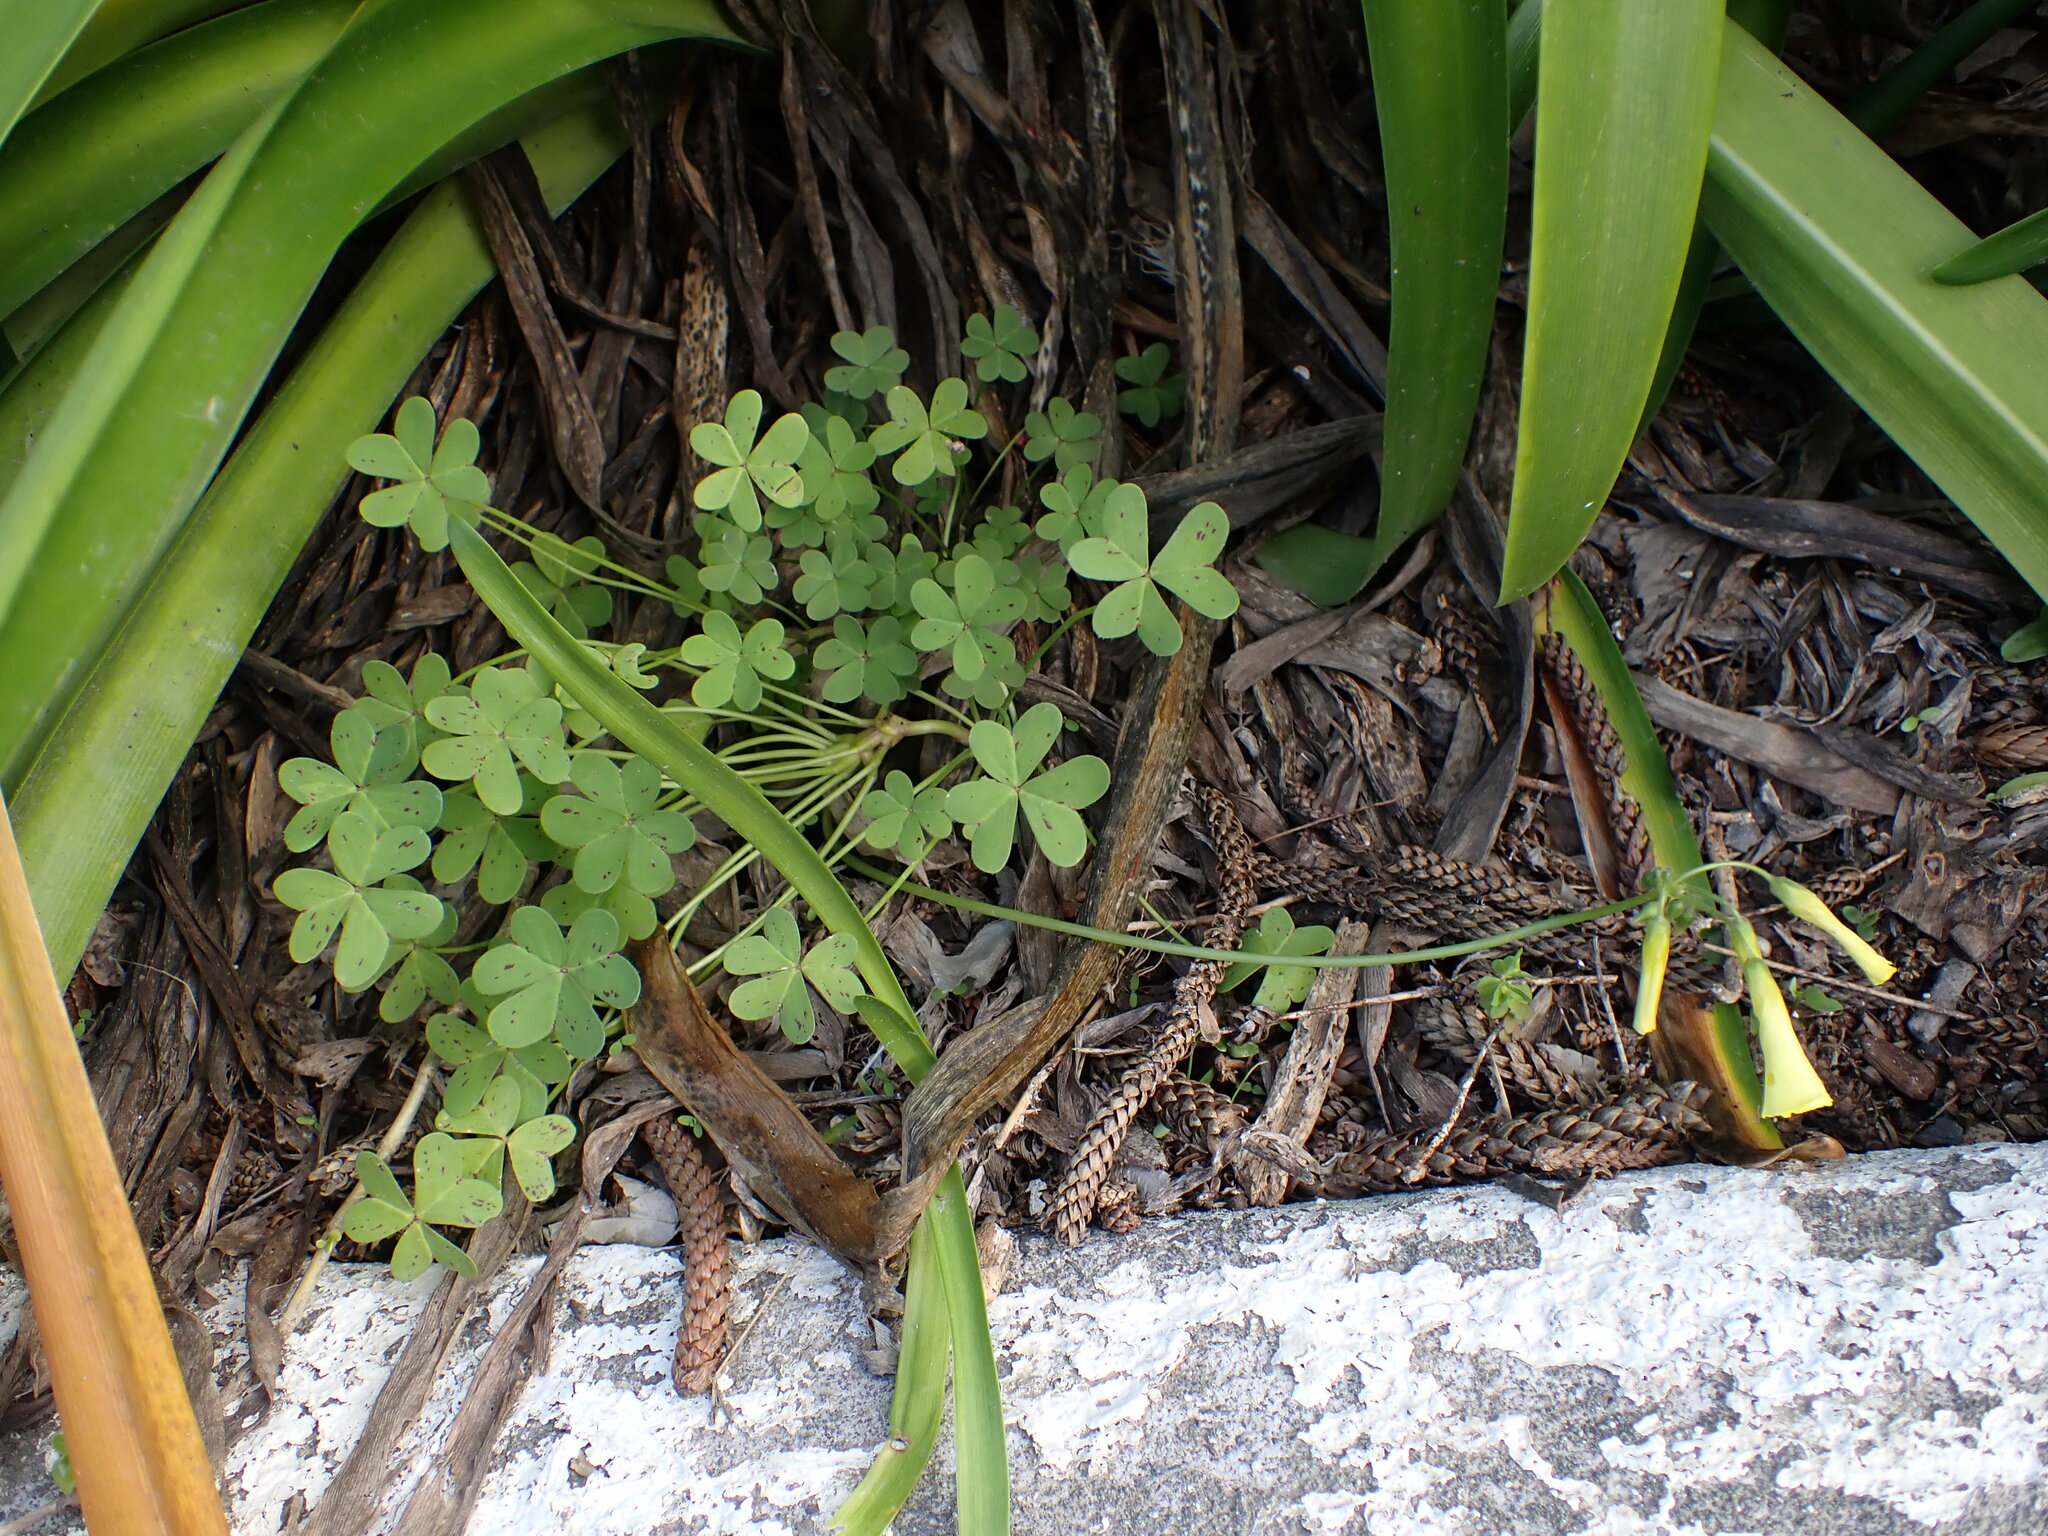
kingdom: Plantae
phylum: Tracheophyta
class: Magnoliopsida
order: Oxalidales
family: Oxalidaceae
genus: Oxalis
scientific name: Oxalis pes-caprae
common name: Bermuda-buttercup
